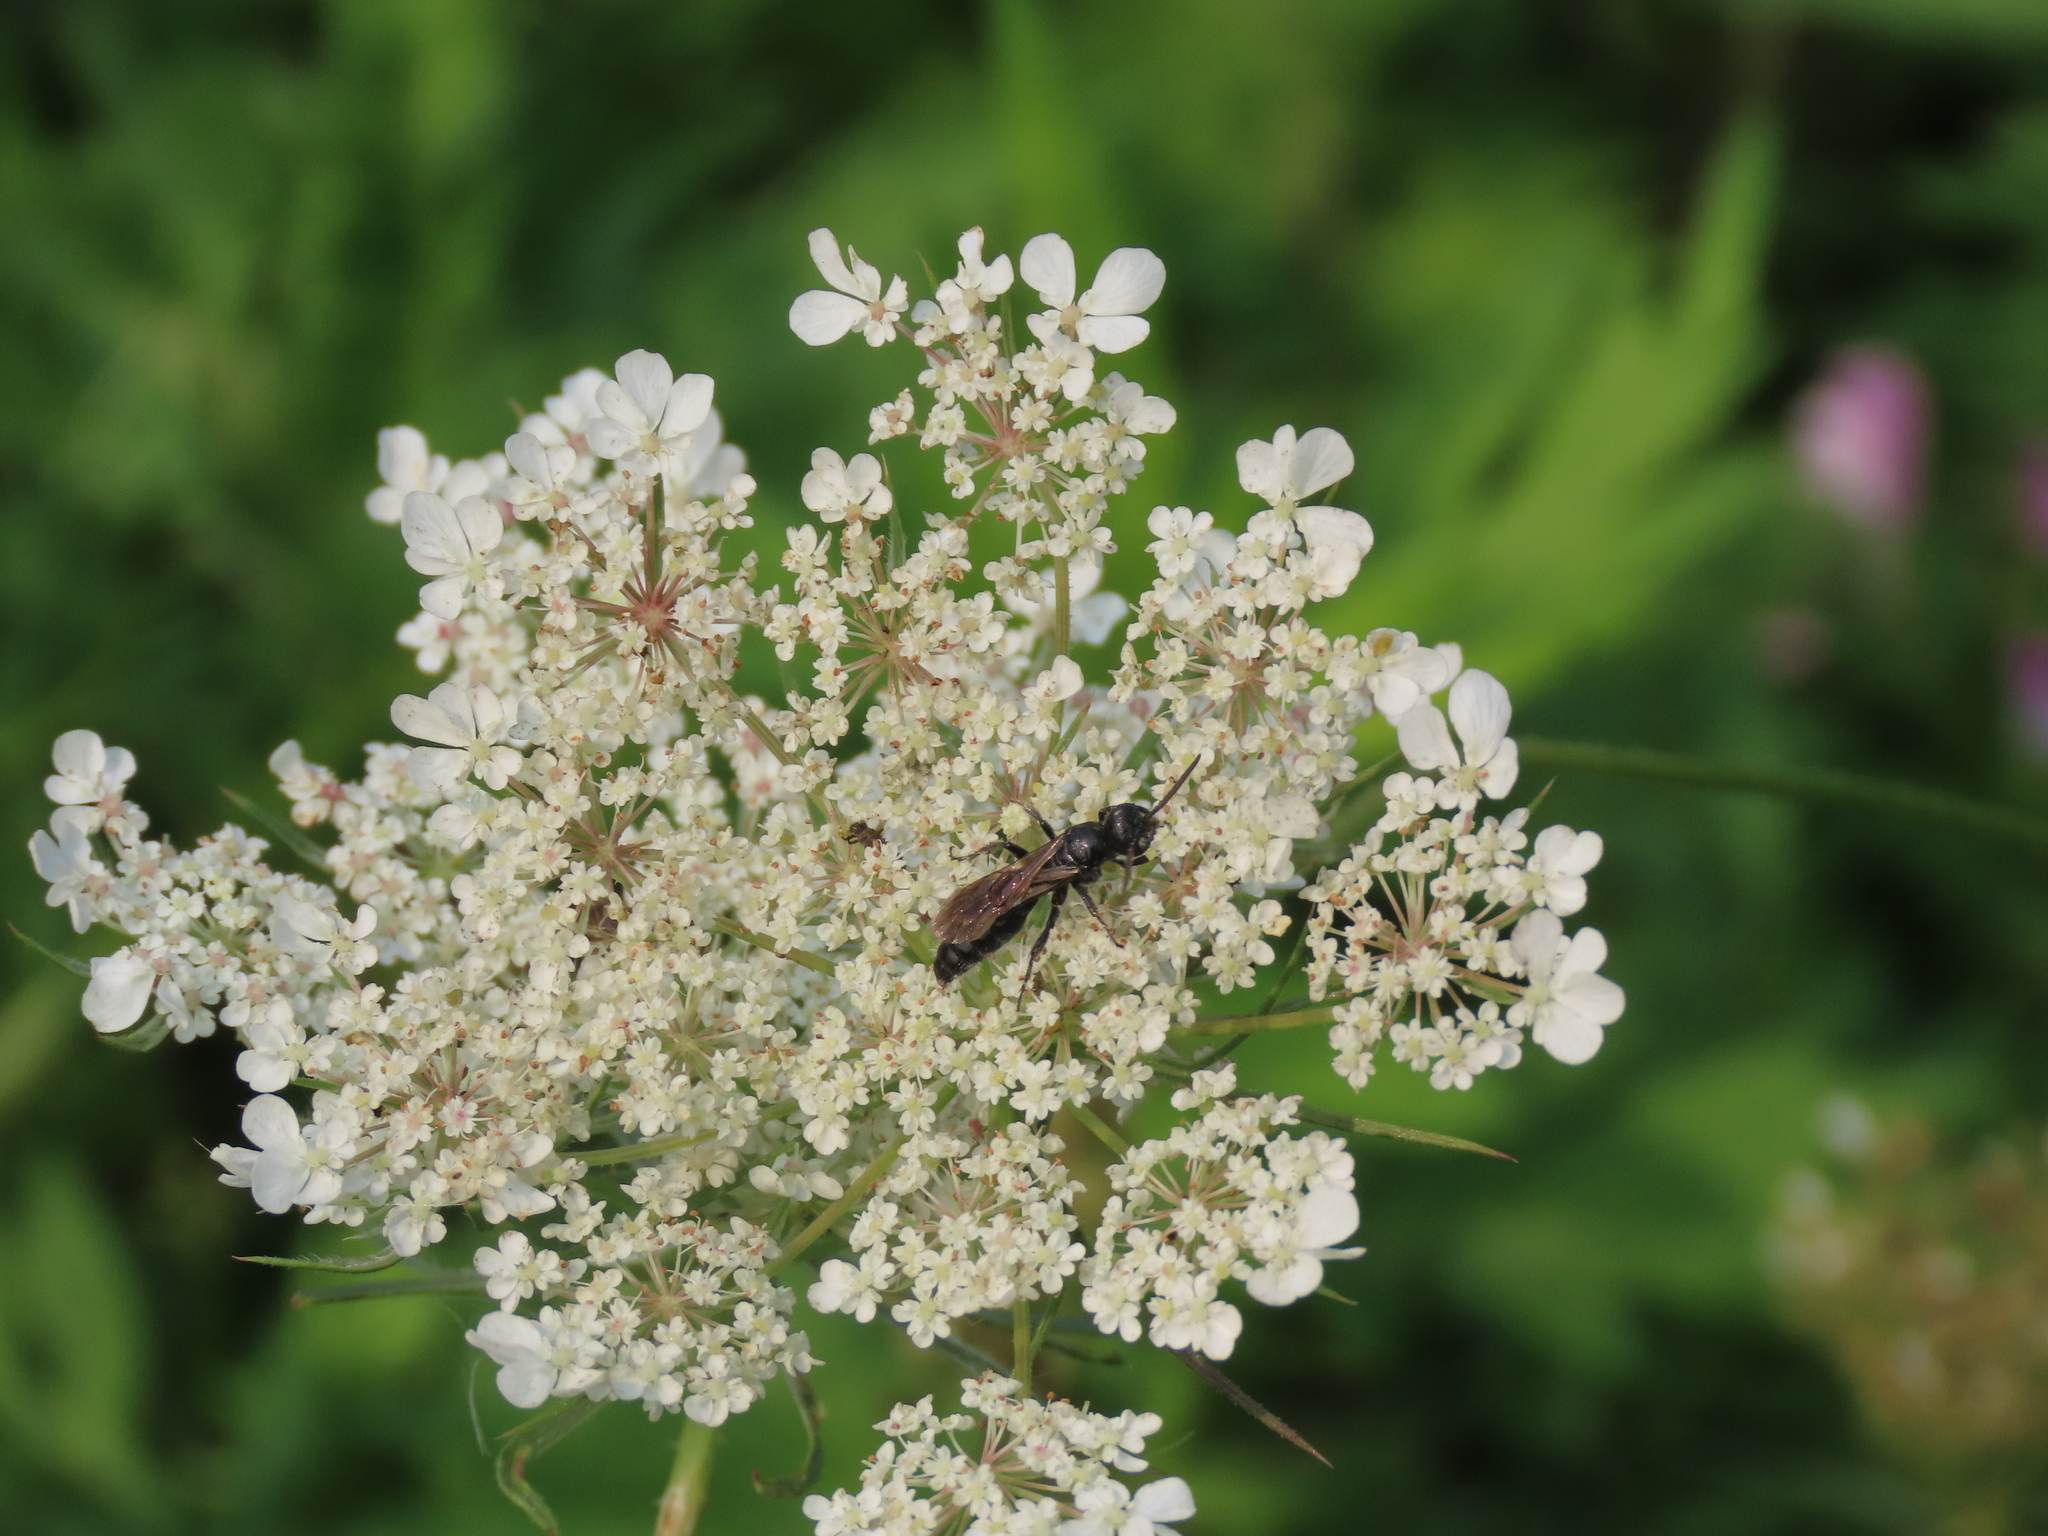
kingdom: Plantae
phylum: Tracheophyta
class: Magnoliopsida
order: Apiales
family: Apiaceae
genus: Daucus
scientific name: Daucus carota
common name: Wild carrot
